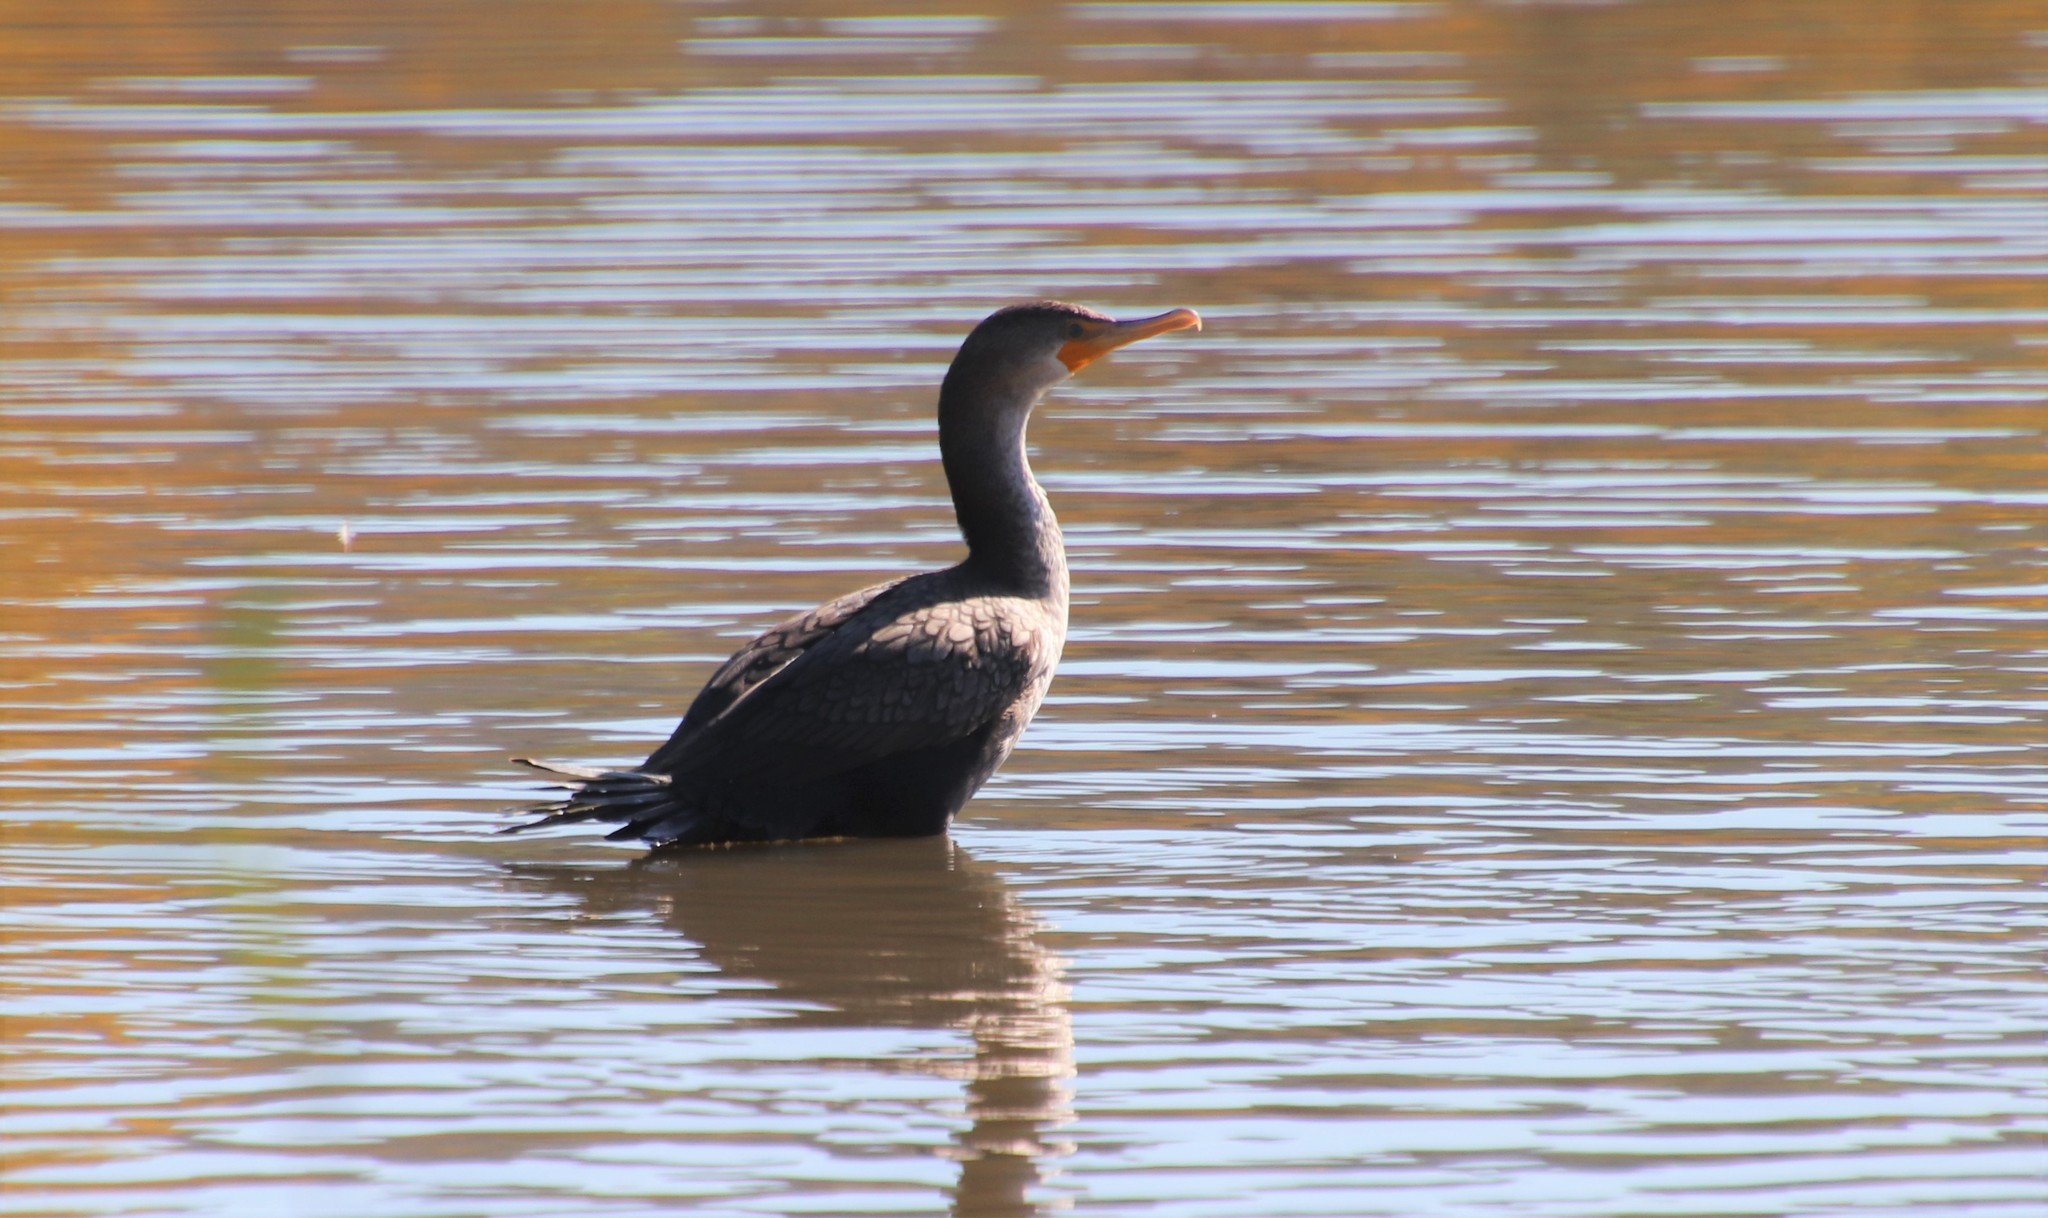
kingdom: Animalia
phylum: Chordata
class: Aves
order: Suliformes
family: Phalacrocoracidae
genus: Phalacrocorax
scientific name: Phalacrocorax auritus
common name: Double-crested cormorant
